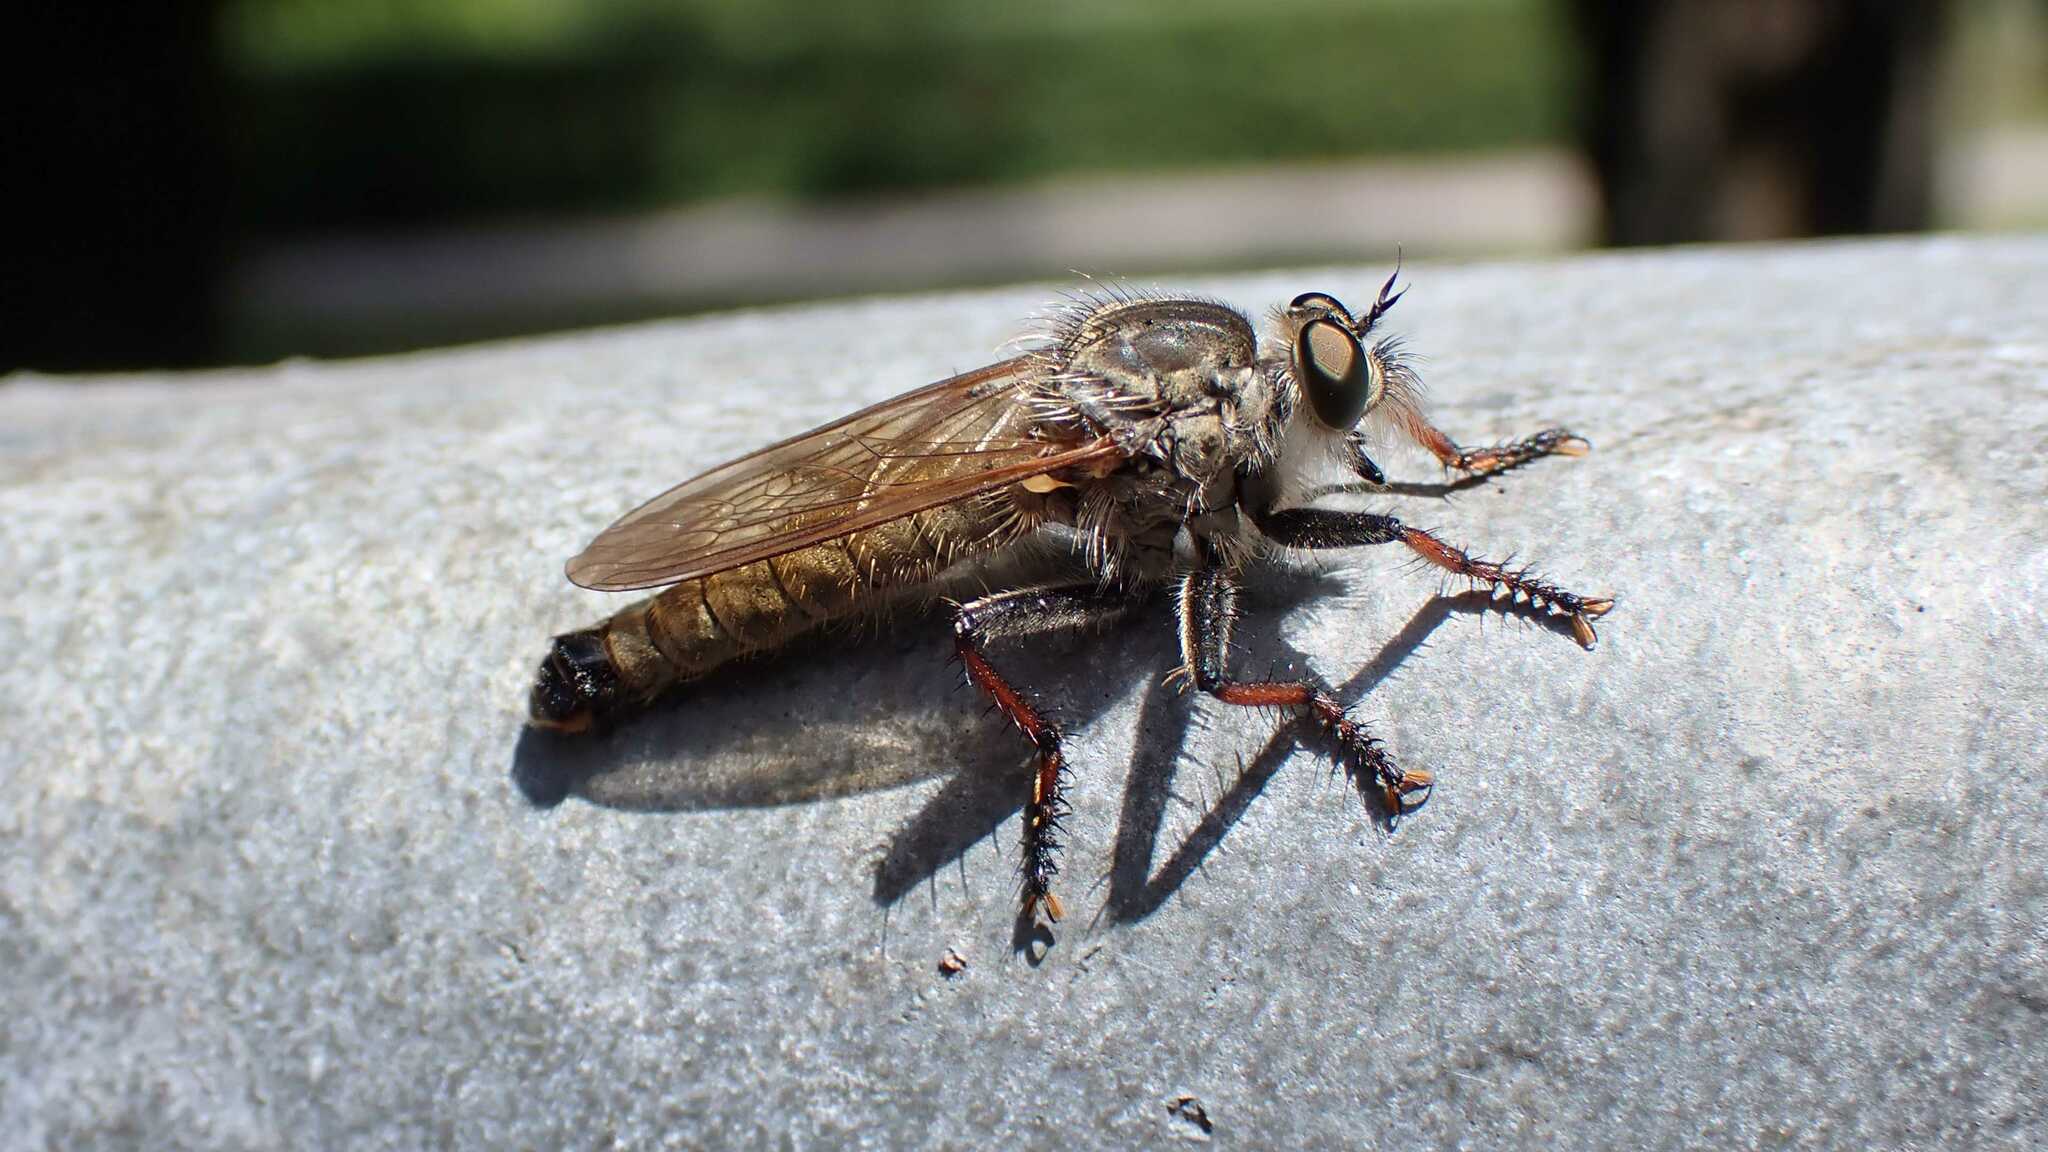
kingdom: Animalia
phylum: Arthropoda
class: Insecta
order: Diptera
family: Asilidae
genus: Antipalus
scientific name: Antipalus varipes
